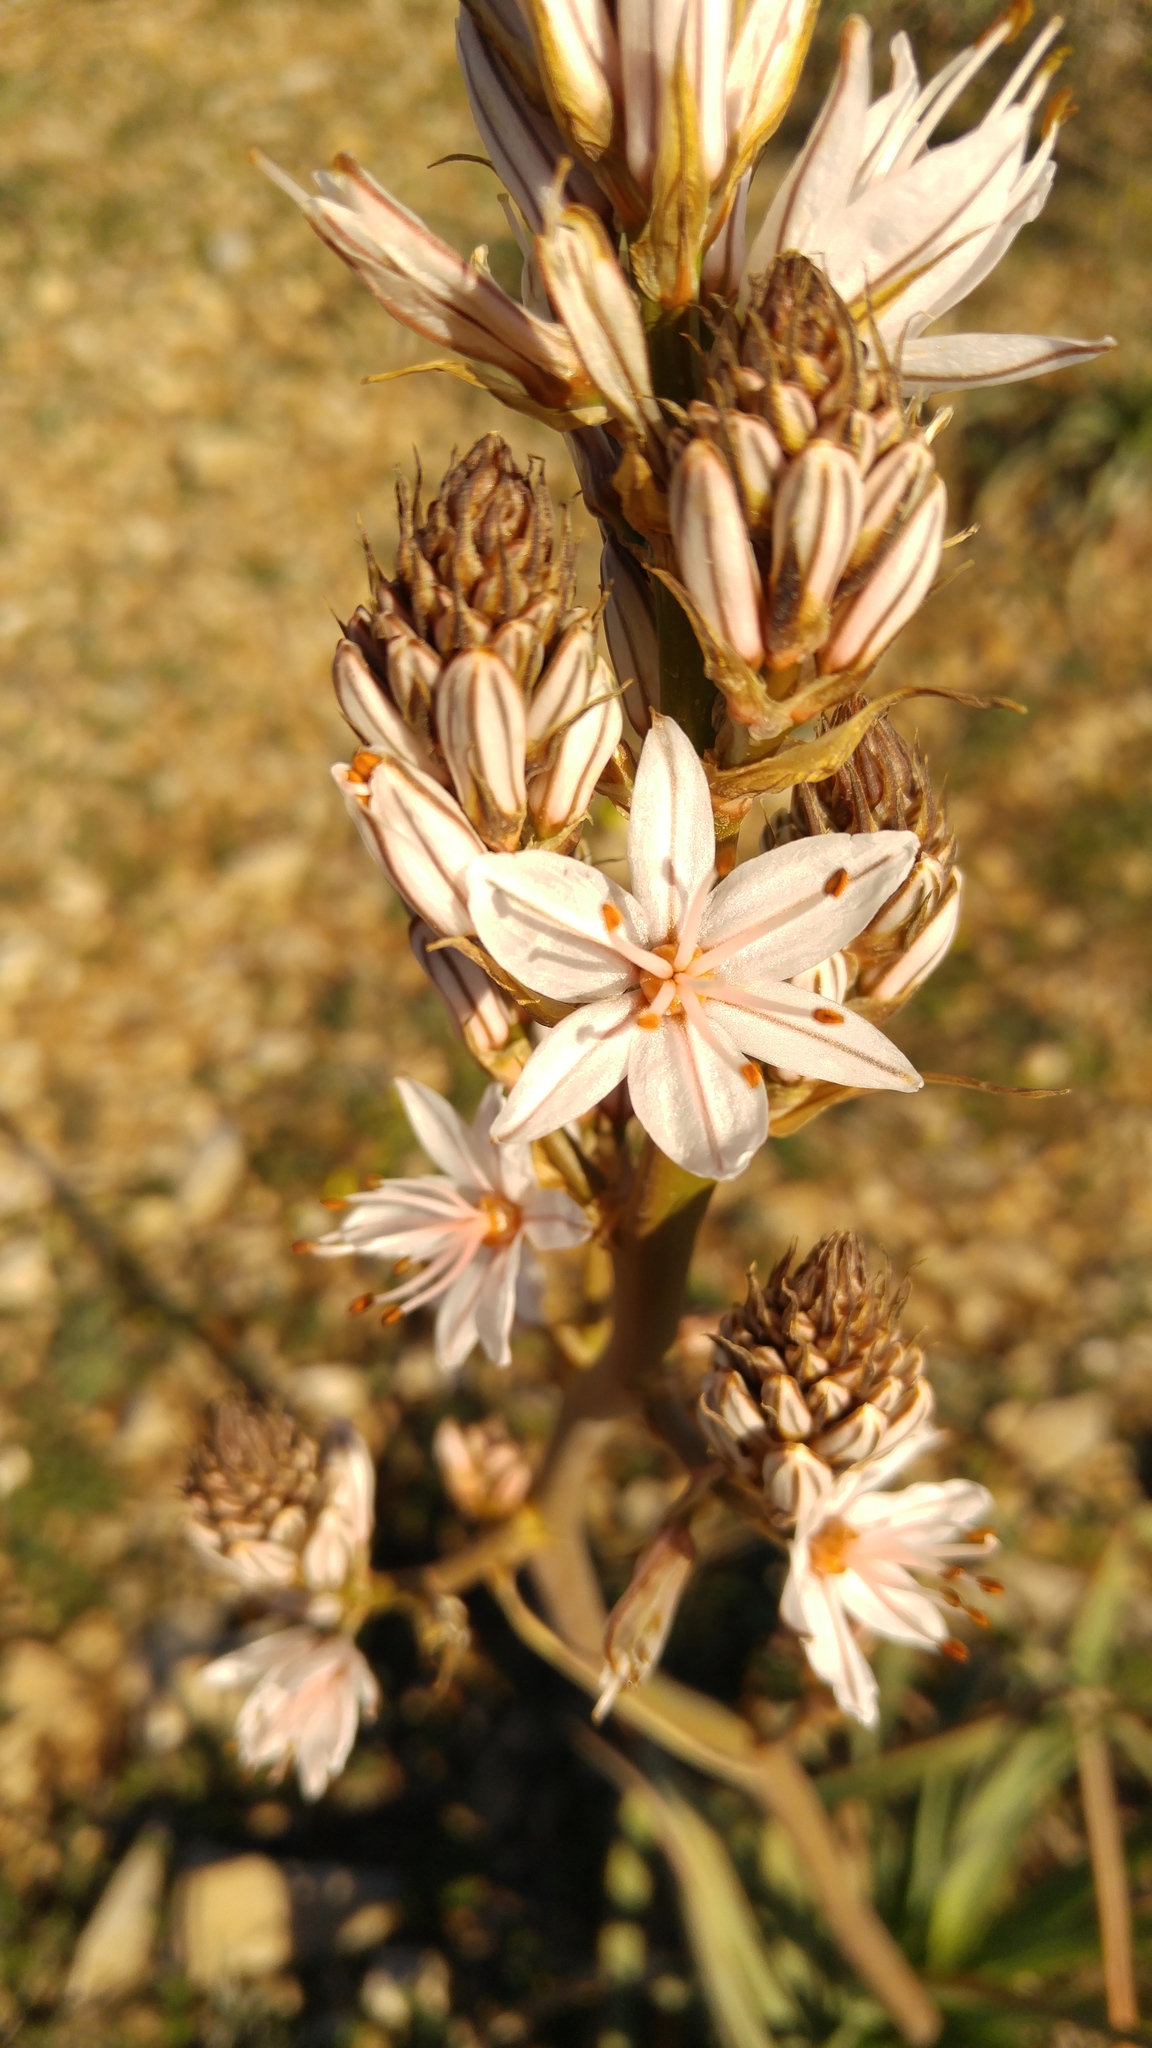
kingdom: Plantae
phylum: Tracheophyta
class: Liliopsida
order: Asparagales
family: Asphodelaceae
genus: Asphodelus
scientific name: Asphodelus ramosus
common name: Silverrod
